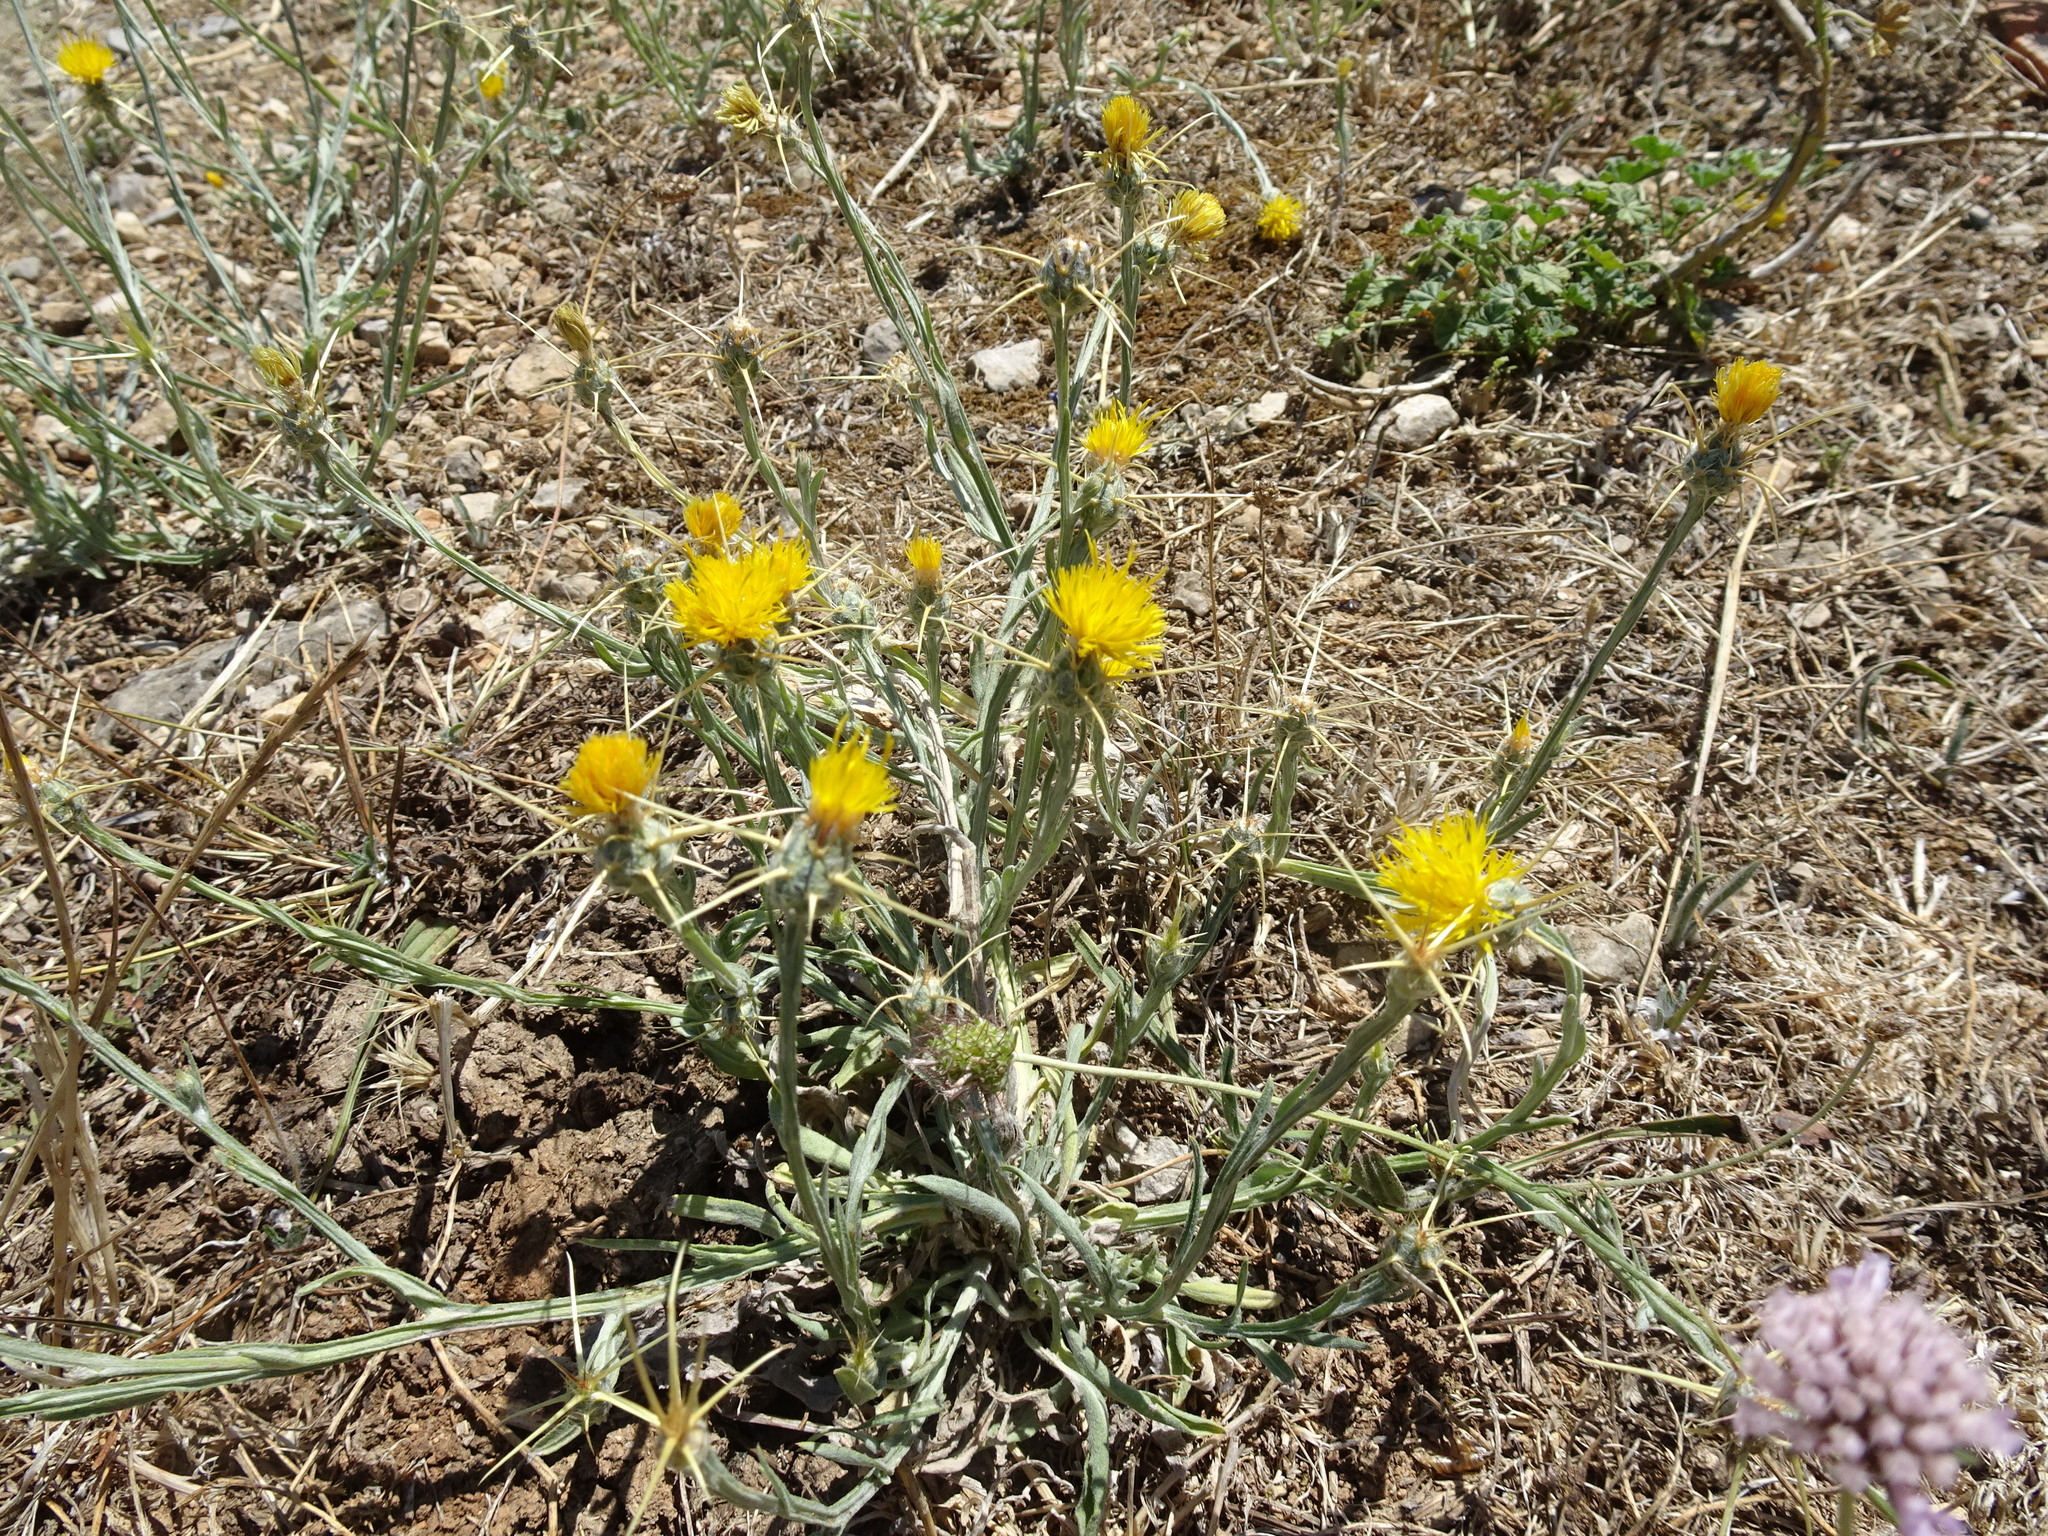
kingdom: Plantae
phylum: Tracheophyta
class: Magnoliopsida
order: Asterales
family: Asteraceae
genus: Centaurea
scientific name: Centaurea solstitialis
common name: Yellow star-thistle
